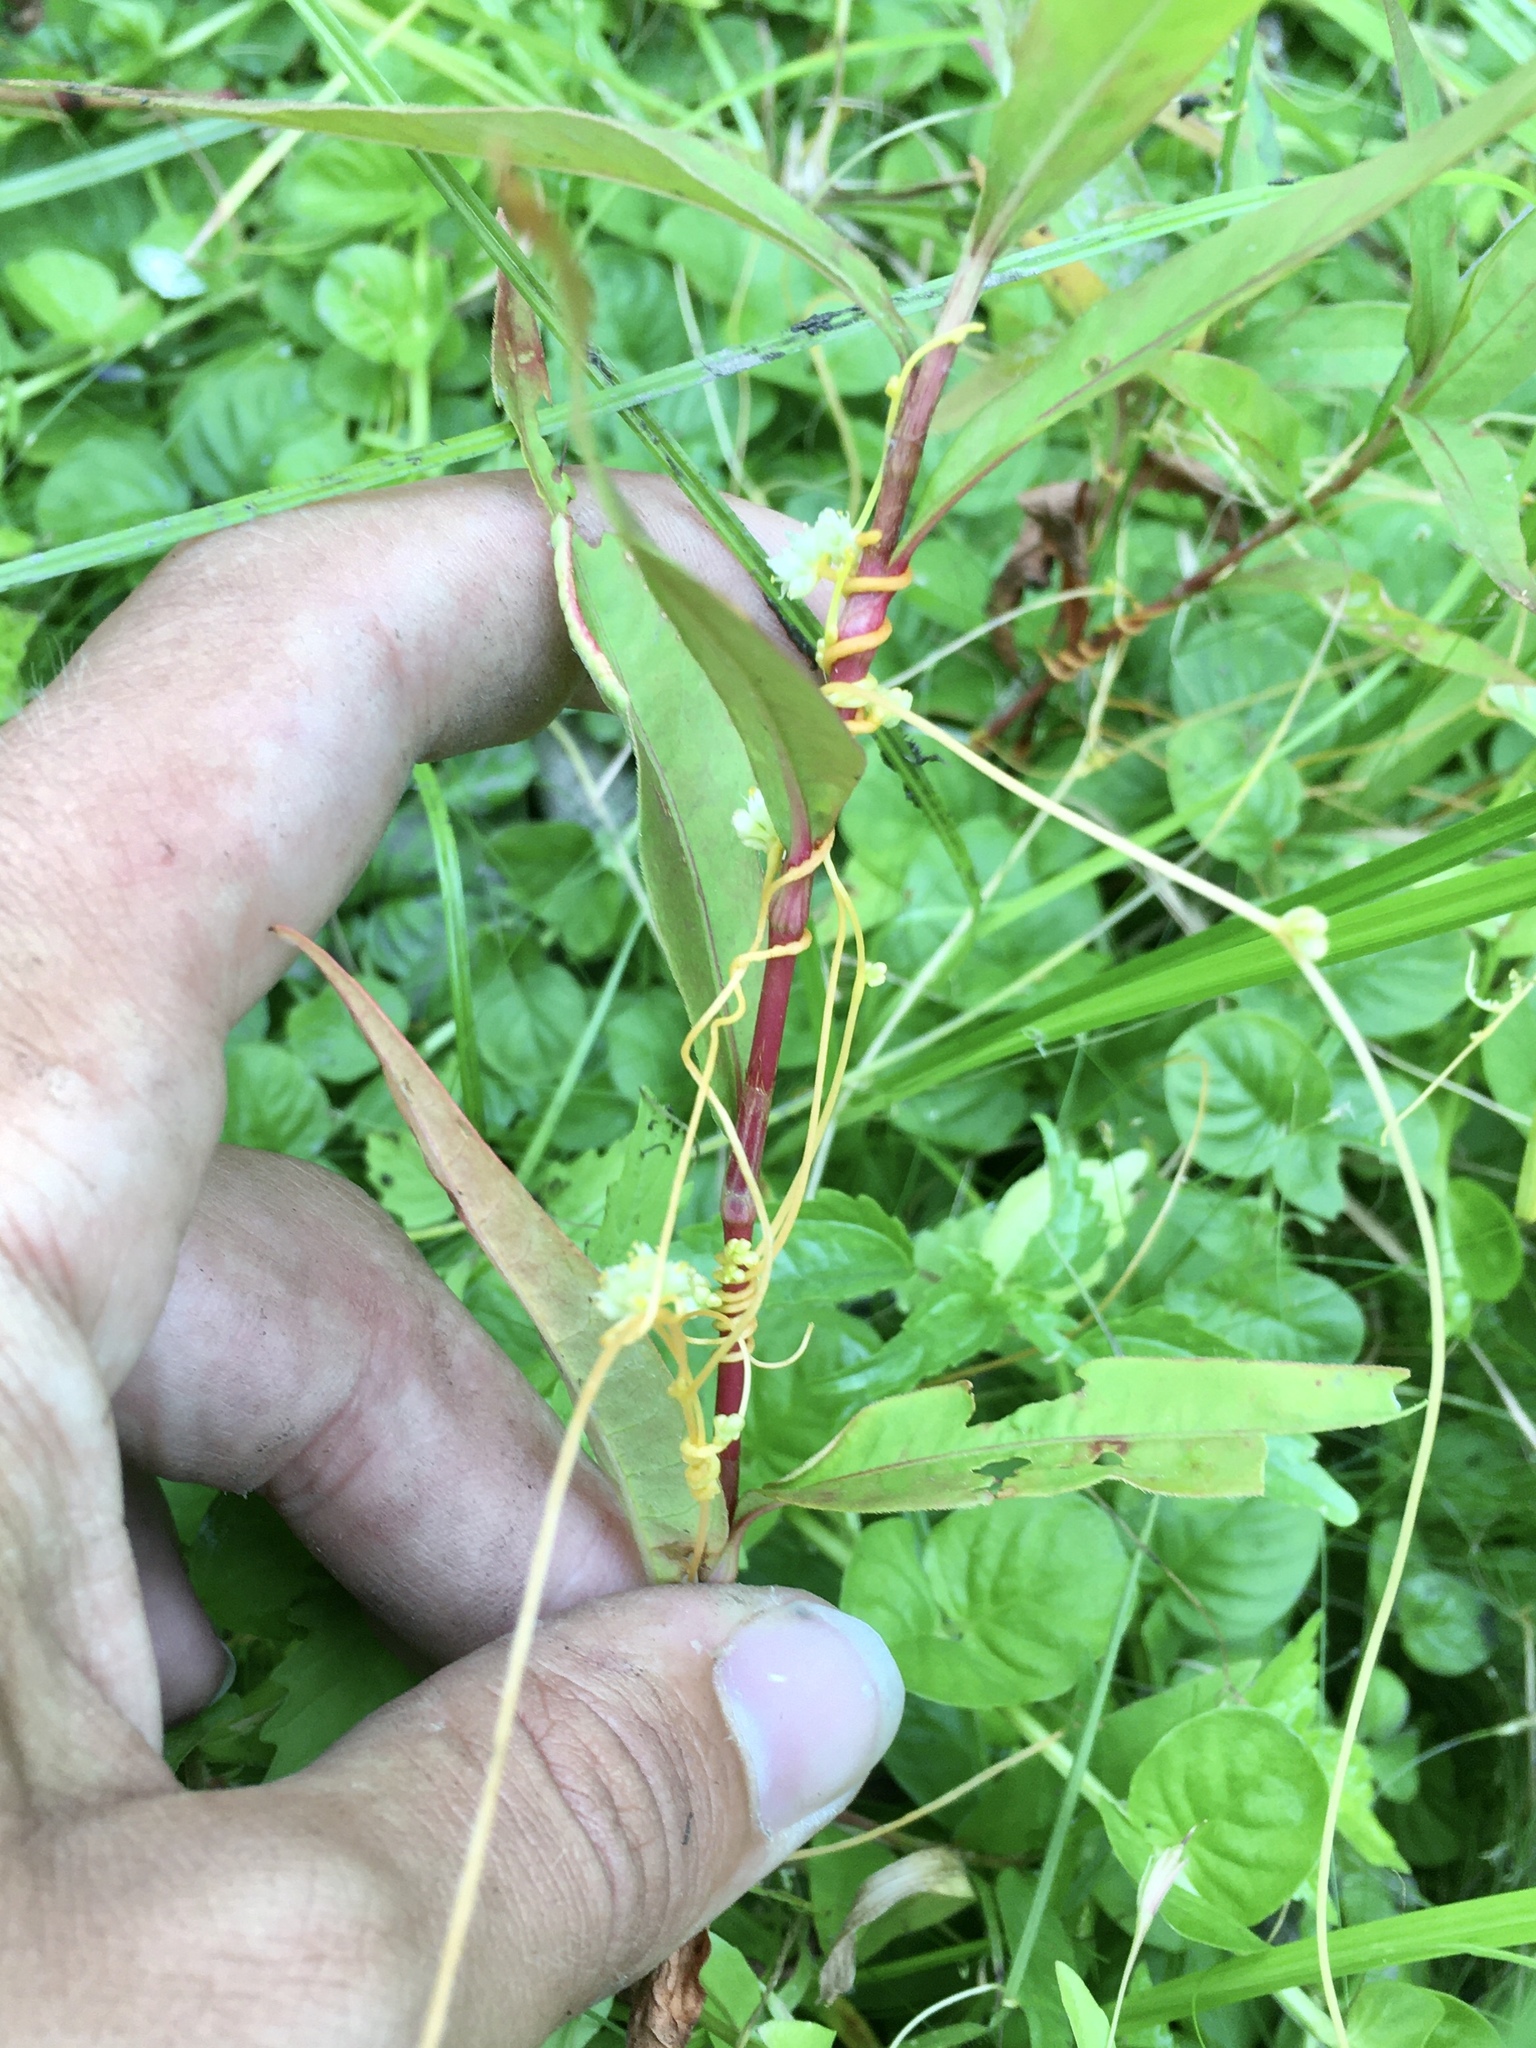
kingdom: Plantae
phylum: Tracheophyta
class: Magnoliopsida
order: Solanales
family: Convolvulaceae
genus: Cuscuta
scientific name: Cuscuta polygonorum
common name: Polygonum dodder
